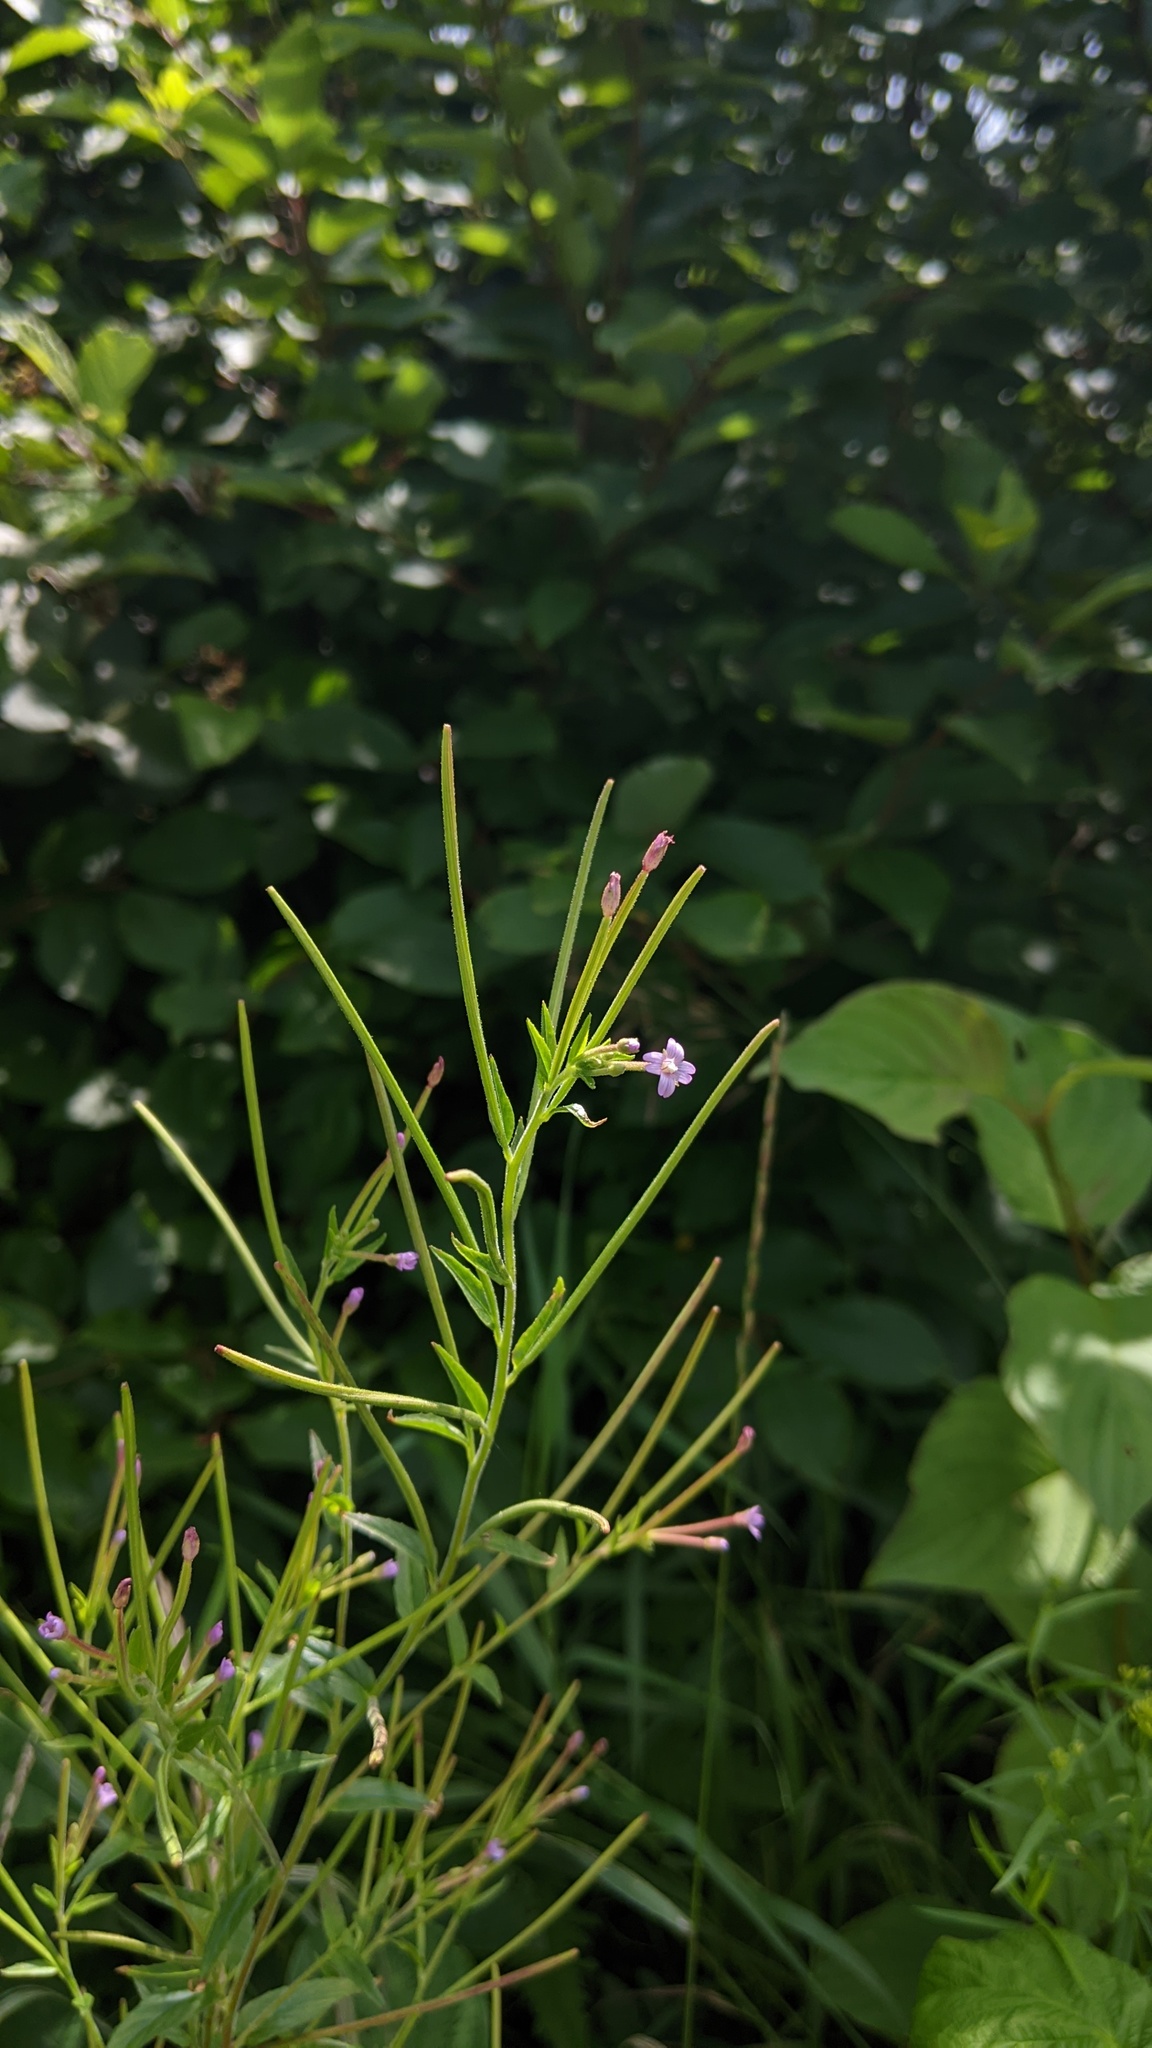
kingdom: Plantae
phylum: Tracheophyta
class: Magnoliopsida
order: Myrtales
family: Onagraceae
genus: Epilobium
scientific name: Epilobium ciliatum
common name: American willowherb
